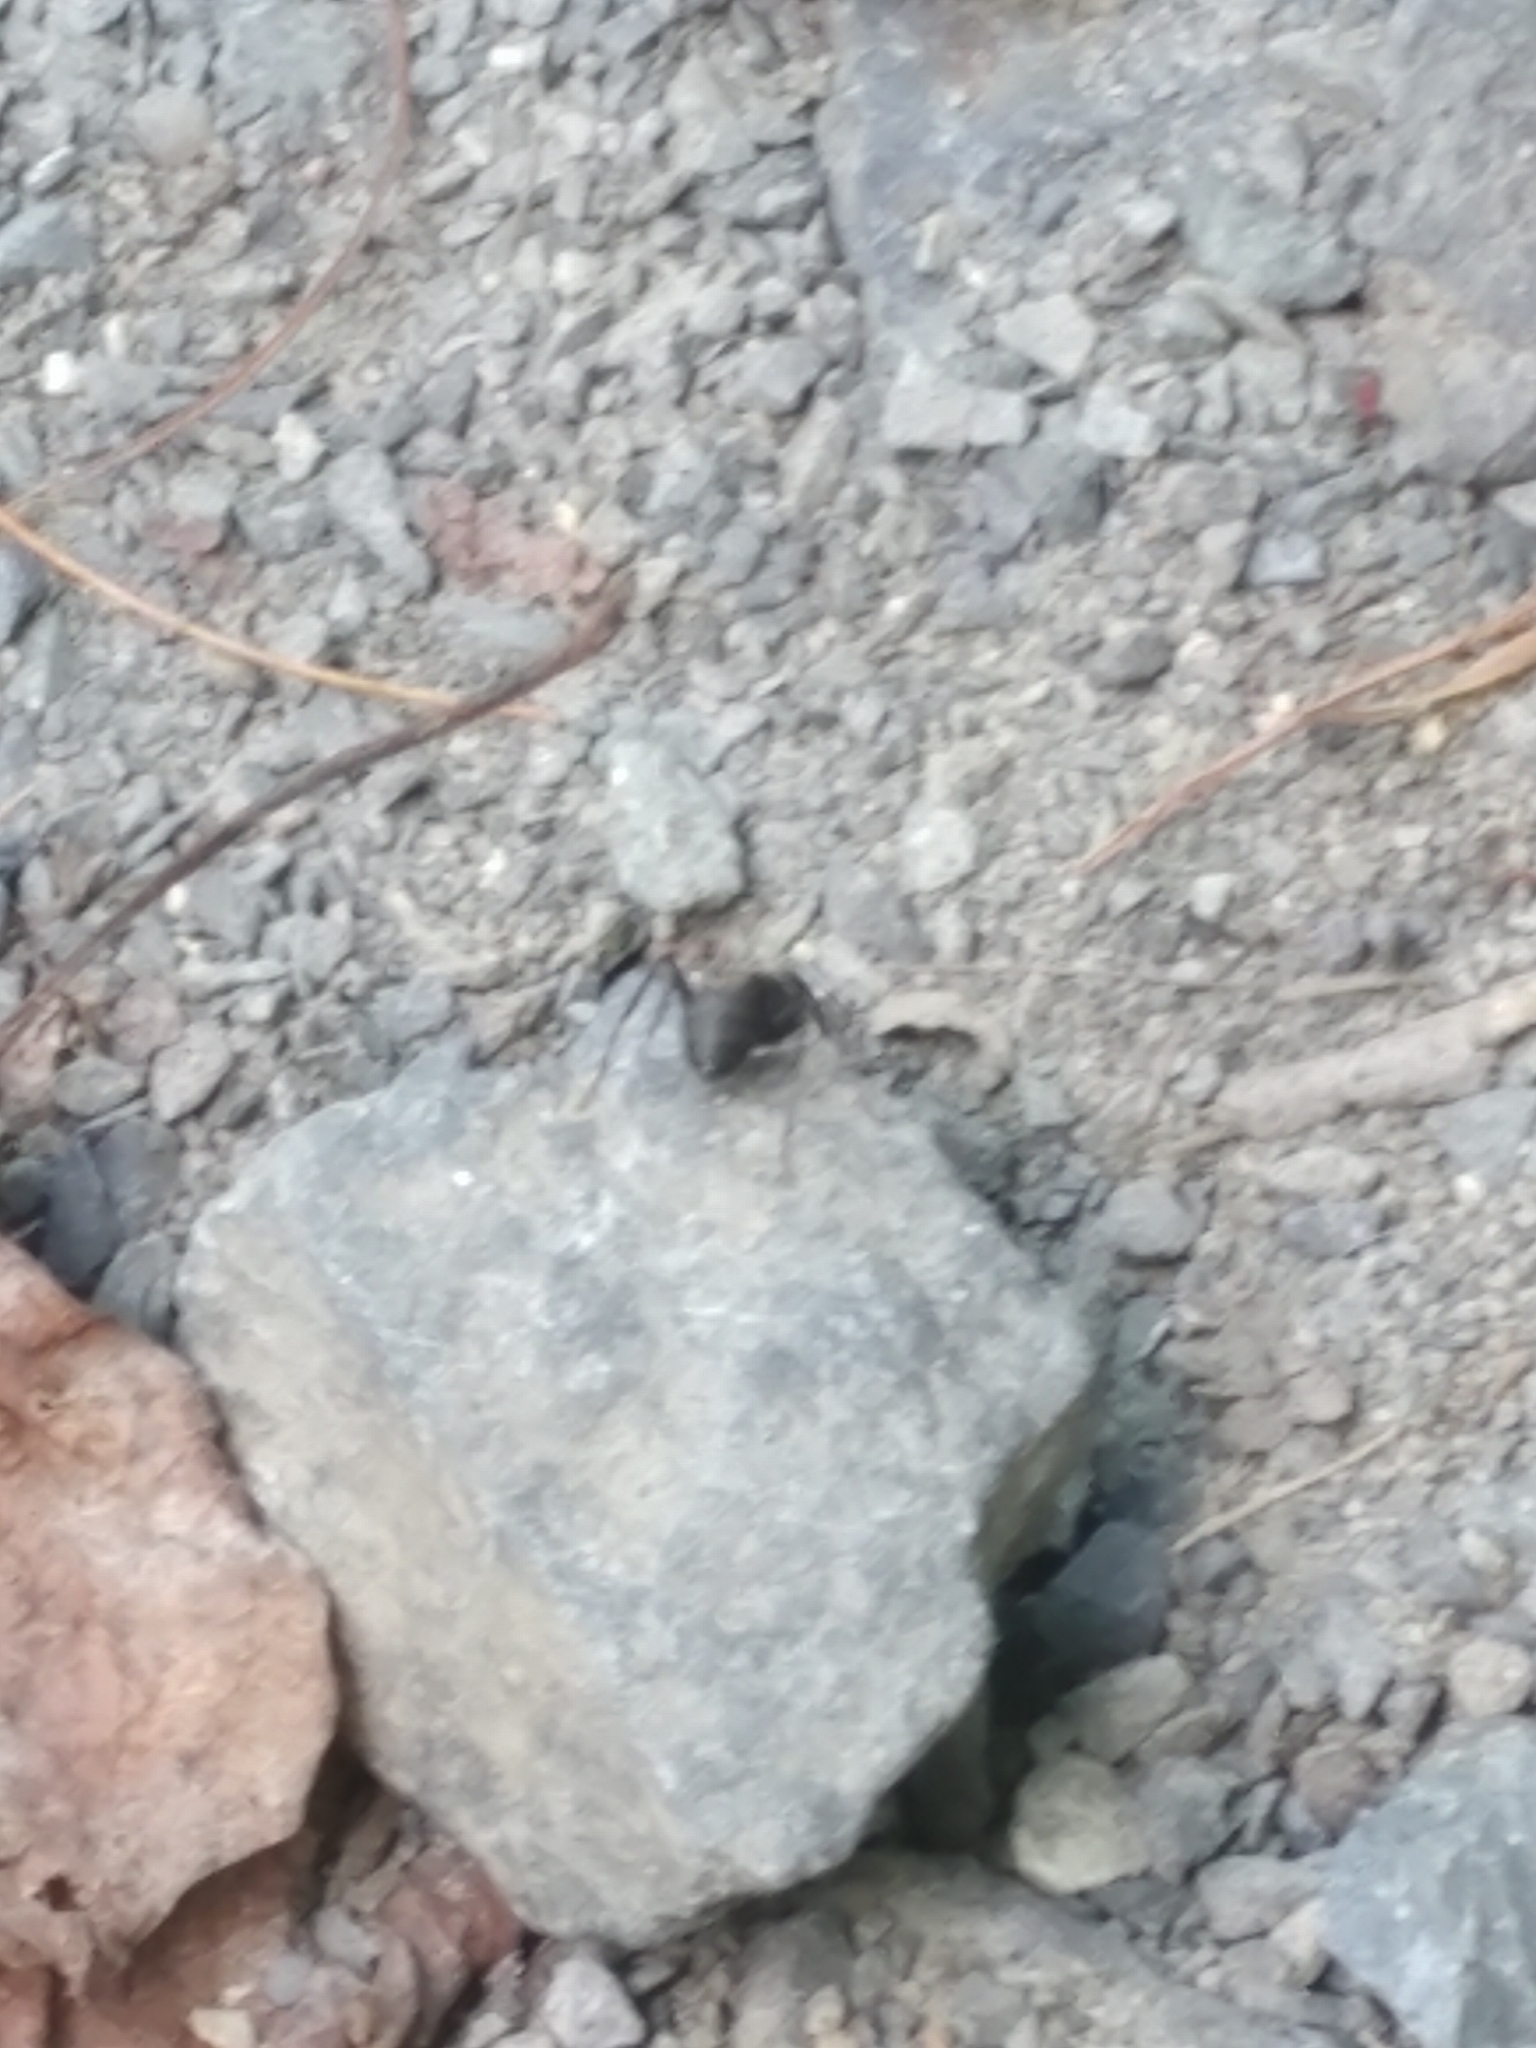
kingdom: Animalia
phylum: Arthropoda
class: Insecta
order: Hymenoptera
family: Formicidae
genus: Camponotus
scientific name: Camponotus pennsylvanicus
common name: Black carpenter ant
